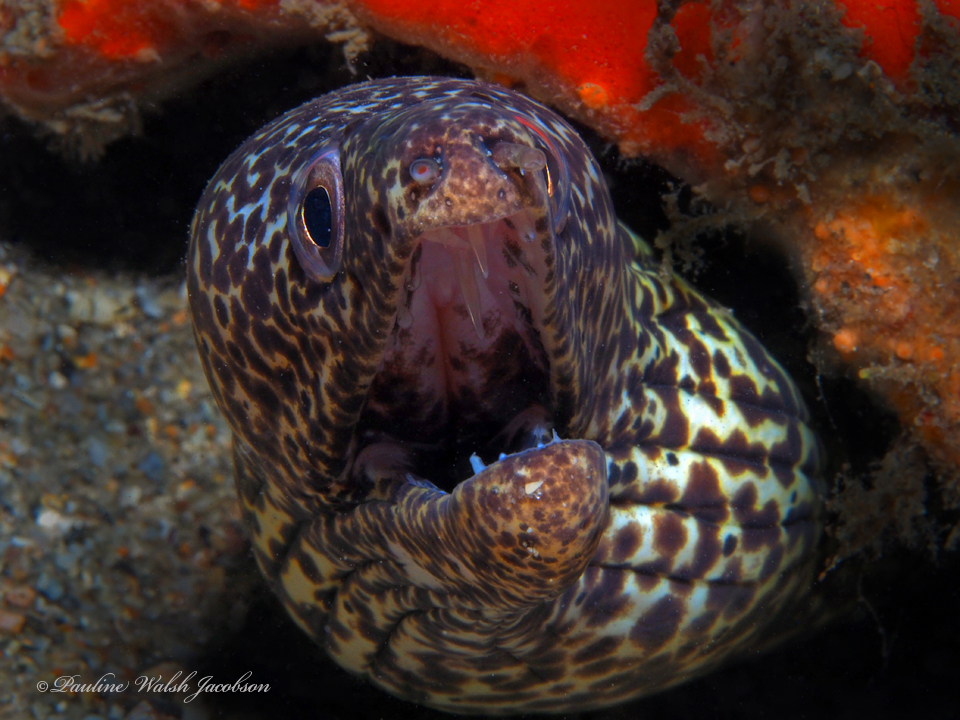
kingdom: Animalia
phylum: Chordata
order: Anguilliformes
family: Muraenidae
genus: Gymnothorax
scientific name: Gymnothorax moringa
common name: Spotted moray
